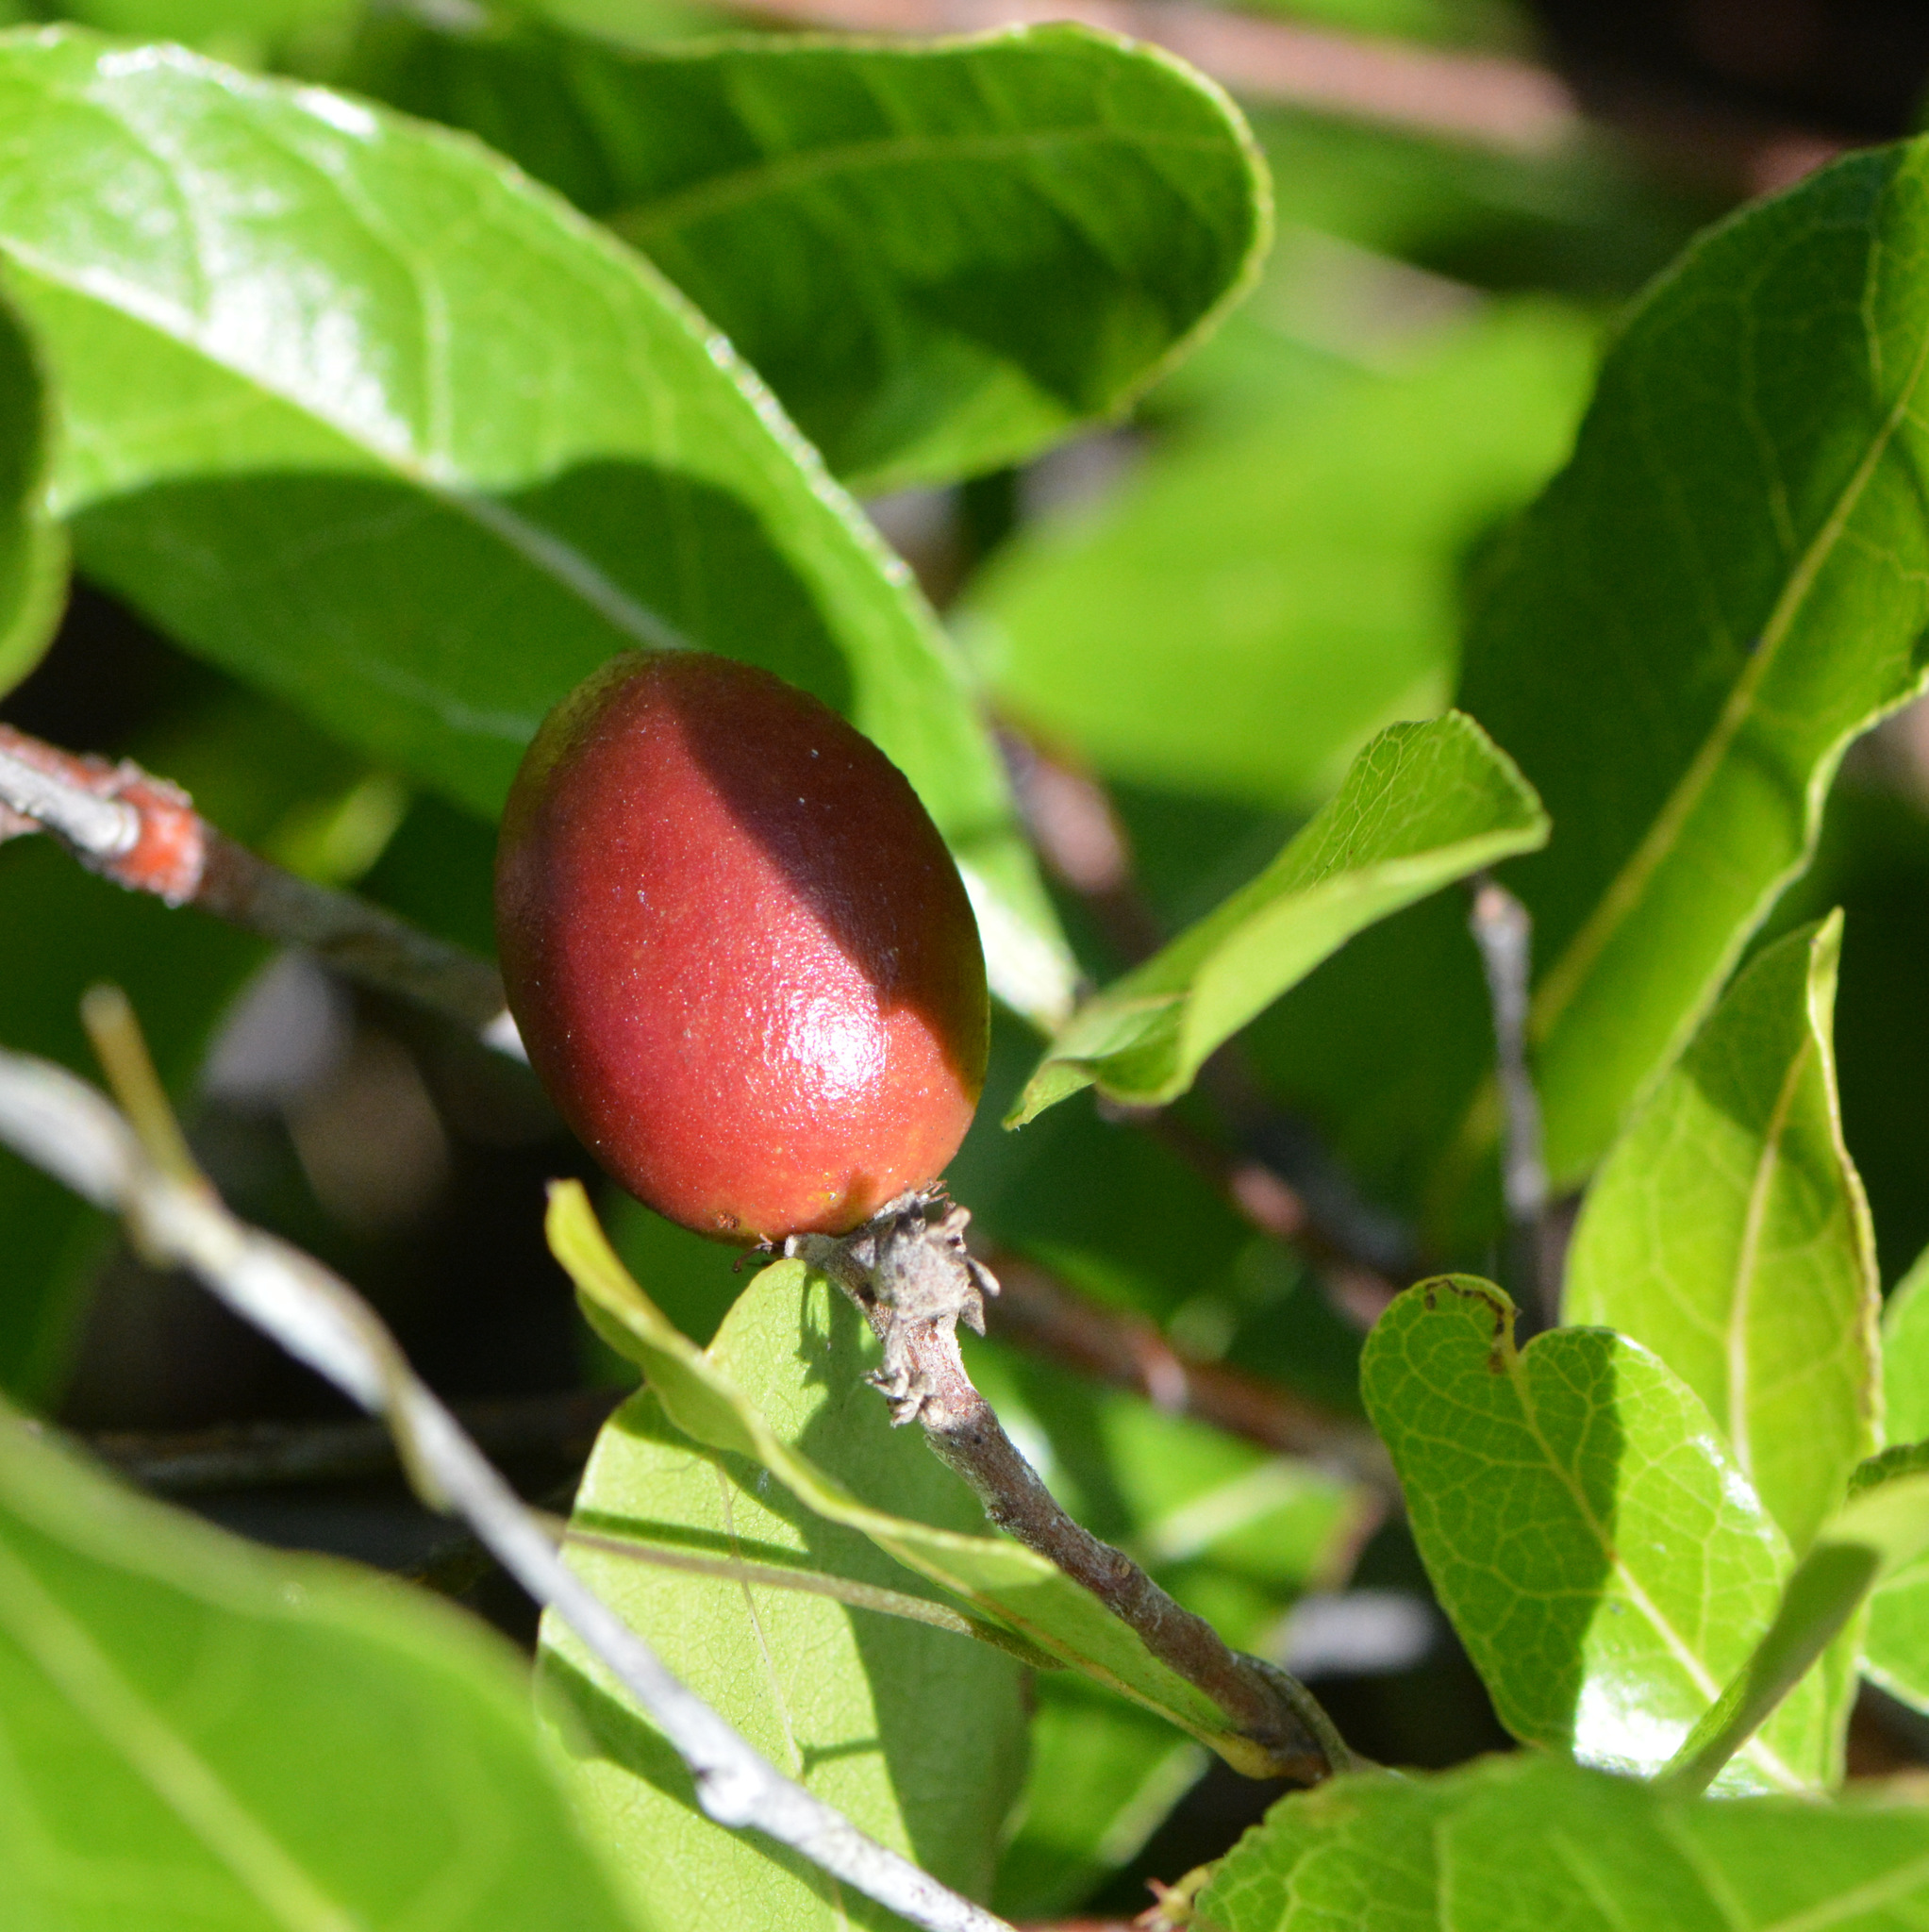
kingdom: Plantae
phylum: Tracheophyta
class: Magnoliopsida
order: Malpighiales
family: Chrysobalanaceae
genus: Geobalanus
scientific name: Geobalanus oblongifolius
